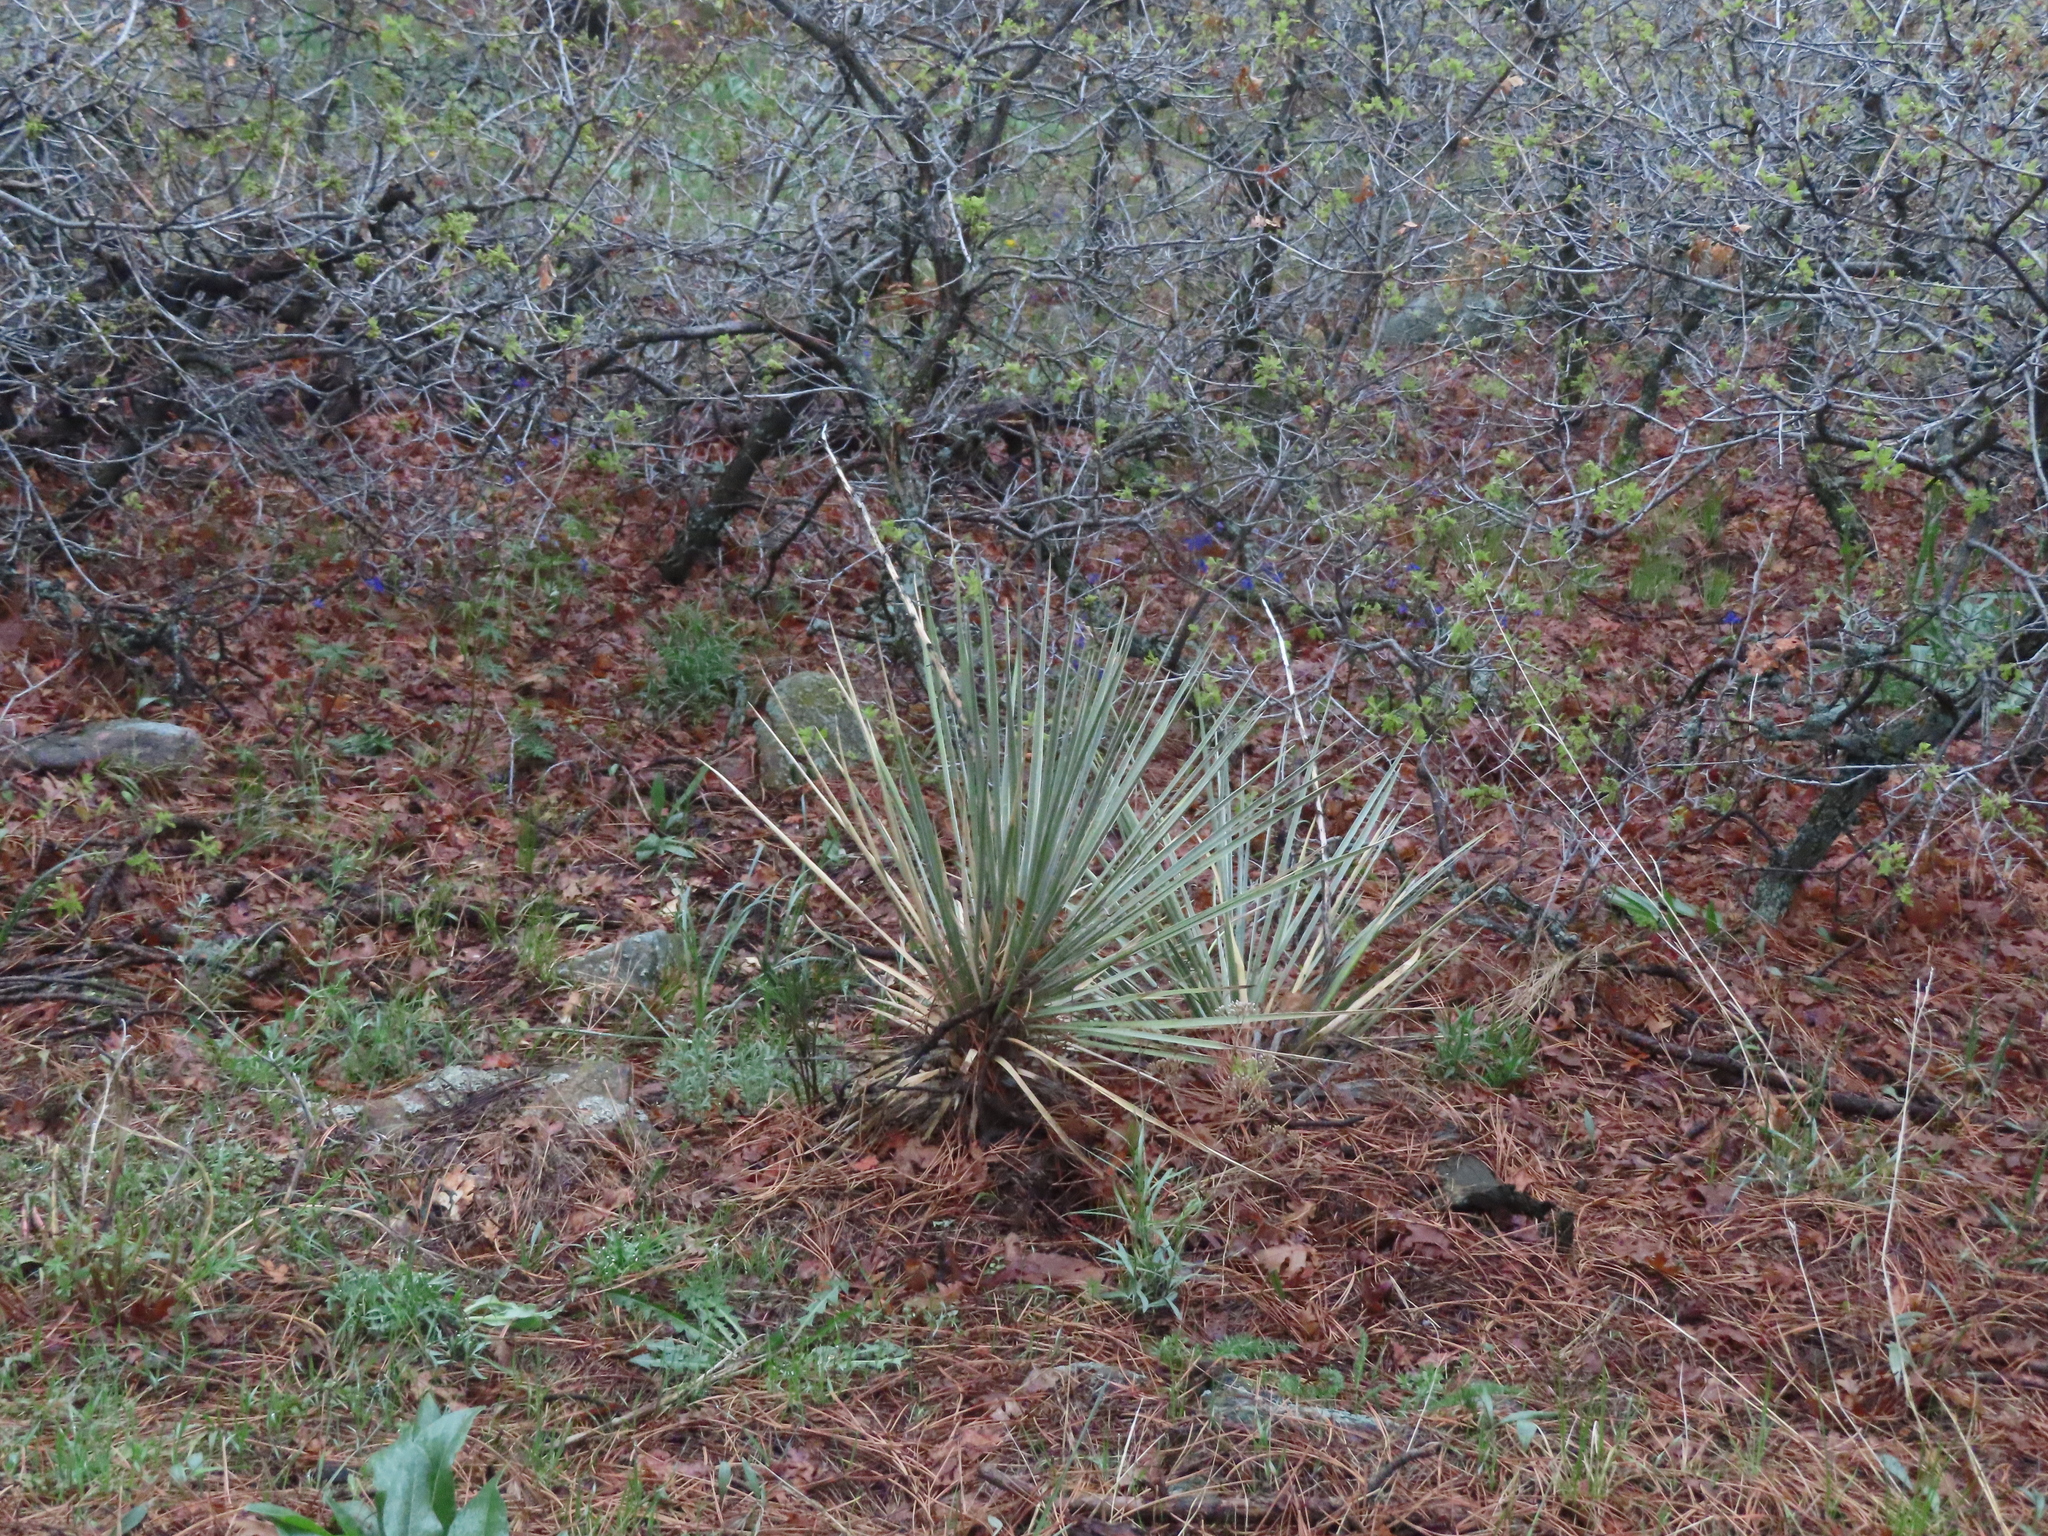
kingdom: Plantae
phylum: Tracheophyta
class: Liliopsida
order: Asparagales
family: Asparagaceae
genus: Yucca
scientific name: Yucca glauca
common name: Great plains yucca
